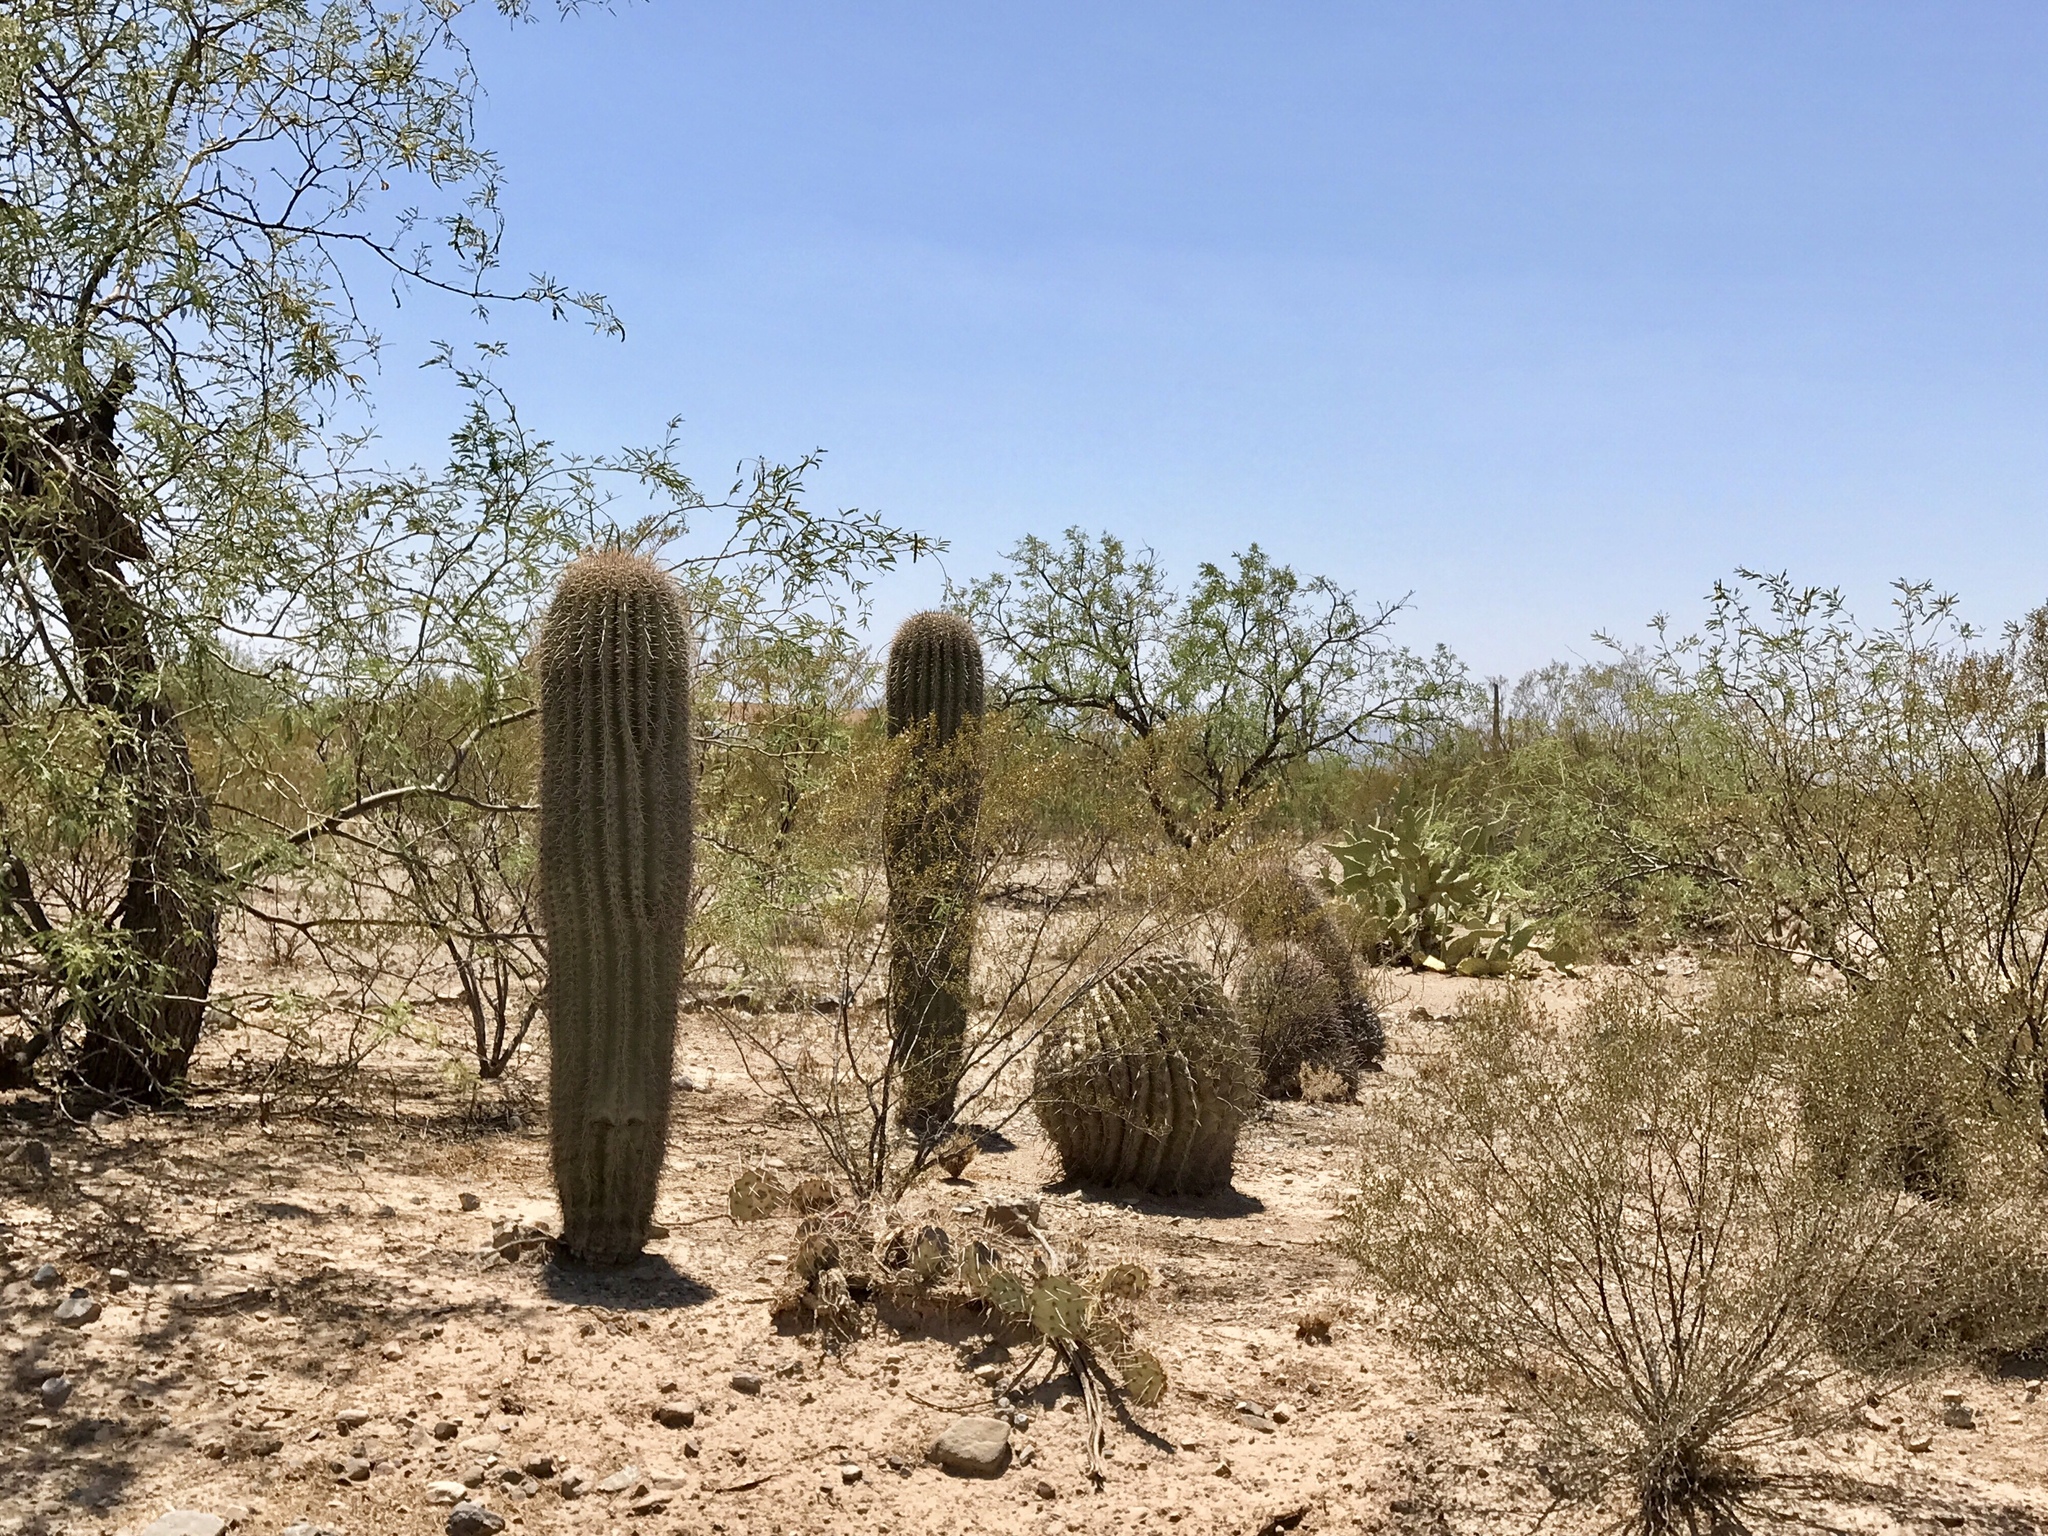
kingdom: Plantae
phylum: Tracheophyta
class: Magnoliopsida
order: Caryophyllales
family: Cactaceae
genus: Ferocactus
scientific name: Ferocactus wislizeni
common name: Candy barrel cactus
